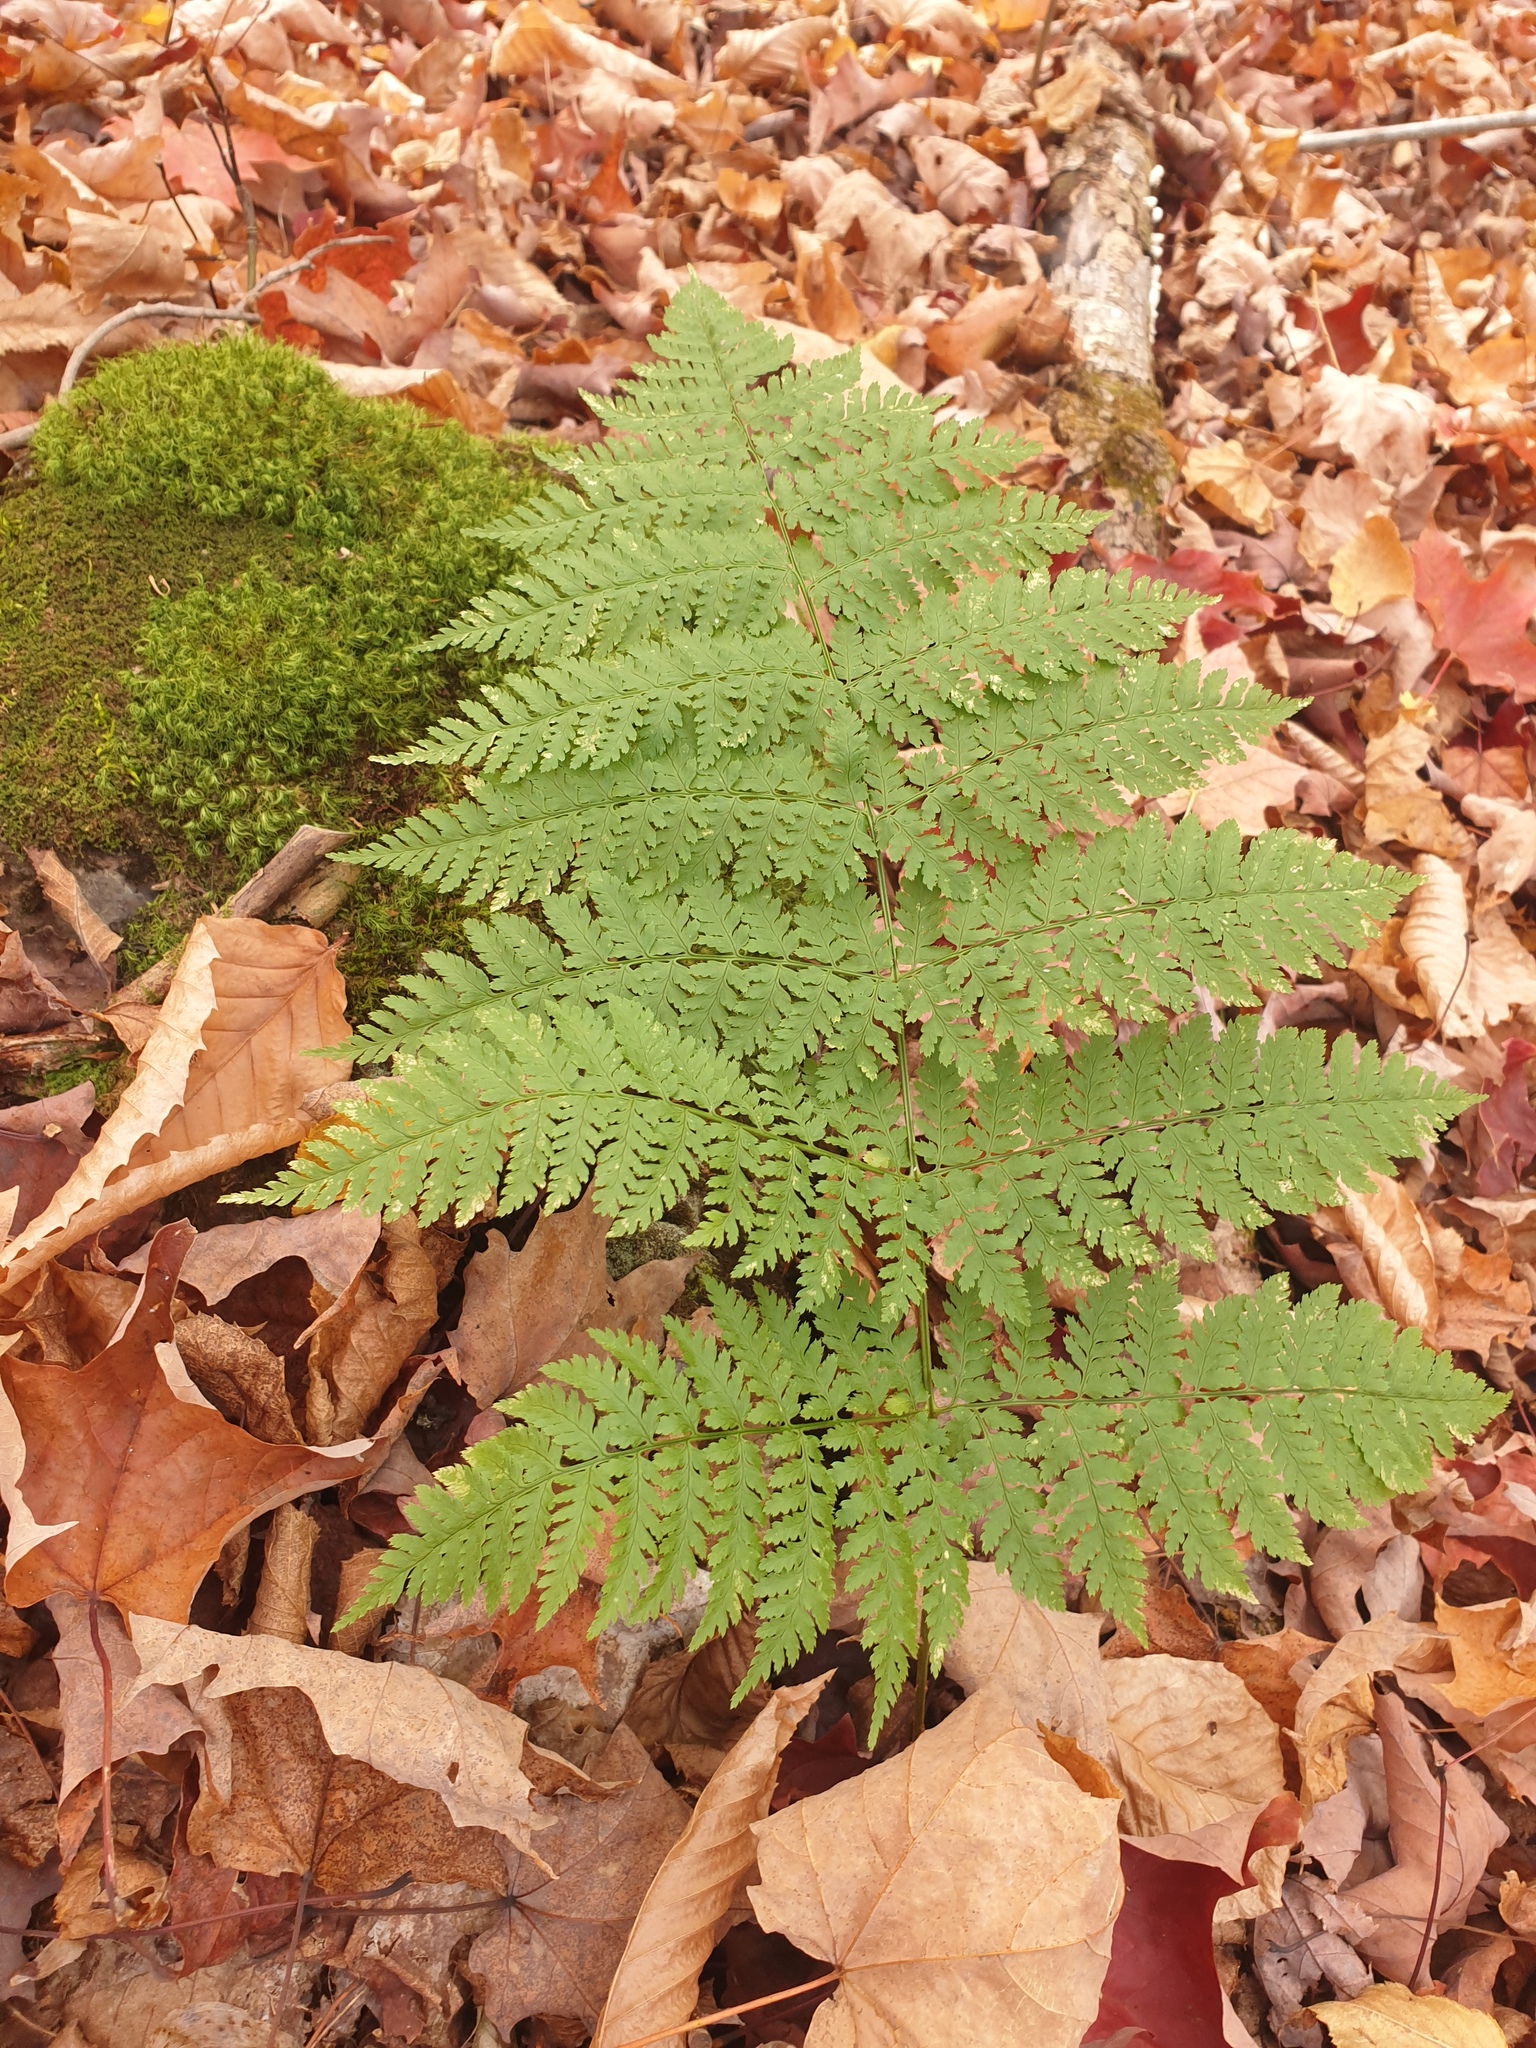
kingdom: Plantae
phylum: Tracheophyta
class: Polypodiopsida
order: Polypodiales
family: Dryopteridaceae
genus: Dryopteris
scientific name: Dryopteris campyloptera
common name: Mountain wood fern
